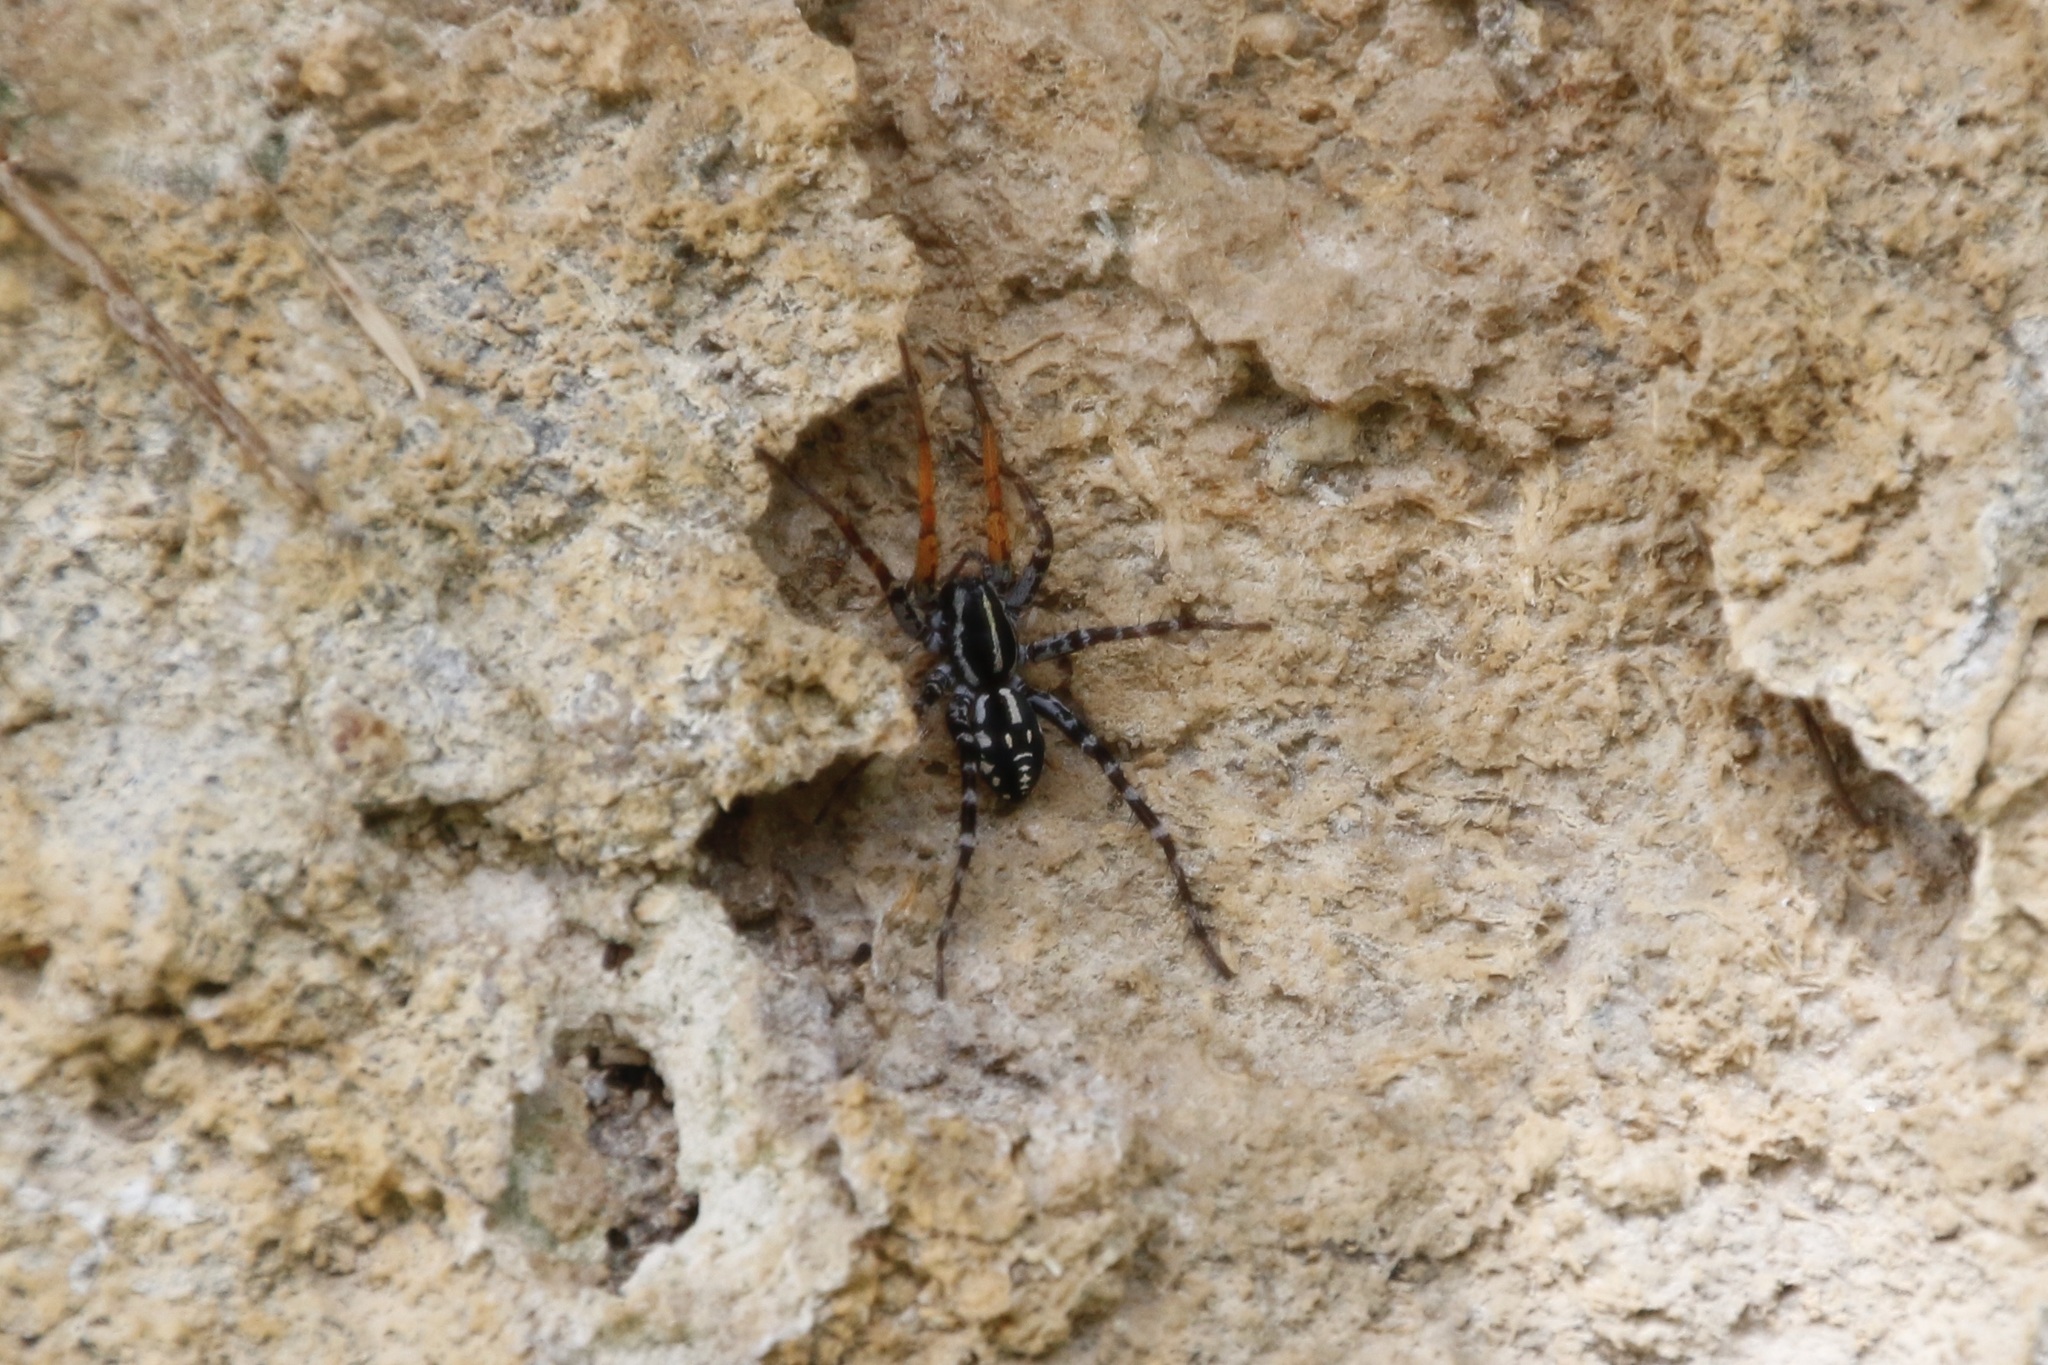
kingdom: Animalia
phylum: Arthropoda
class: Arachnida
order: Araneae
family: Corinnidae
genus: Nyssus
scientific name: Nyssus coloripes
